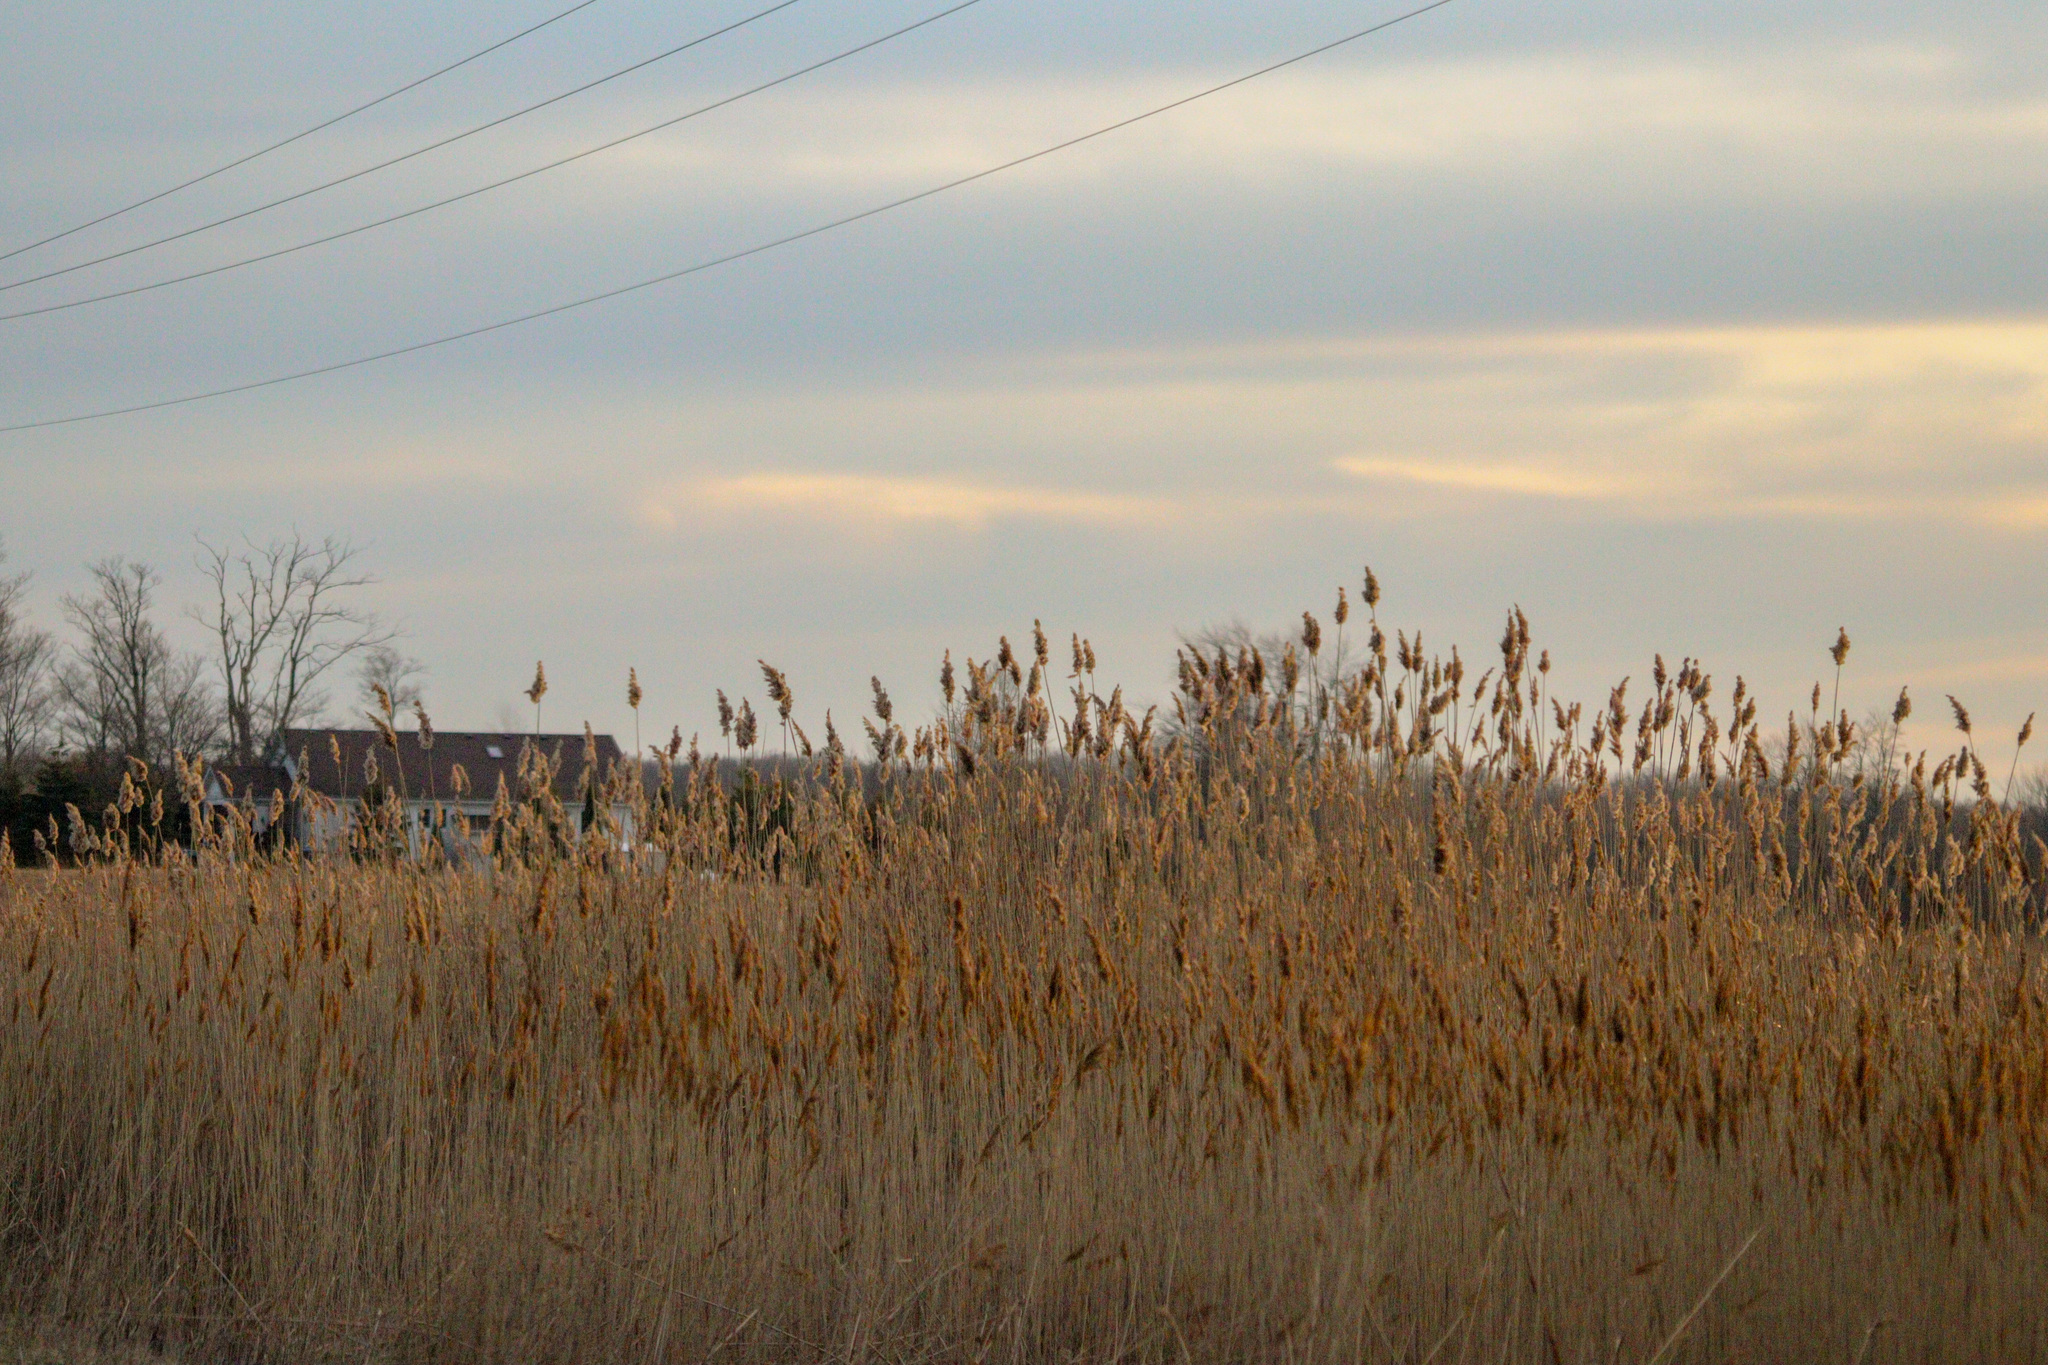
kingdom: Plantae
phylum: Tracheophyta
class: Liliopsida
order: Poales
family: Poaceae
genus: Phragmites
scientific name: Phragmites australis
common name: Common reed
